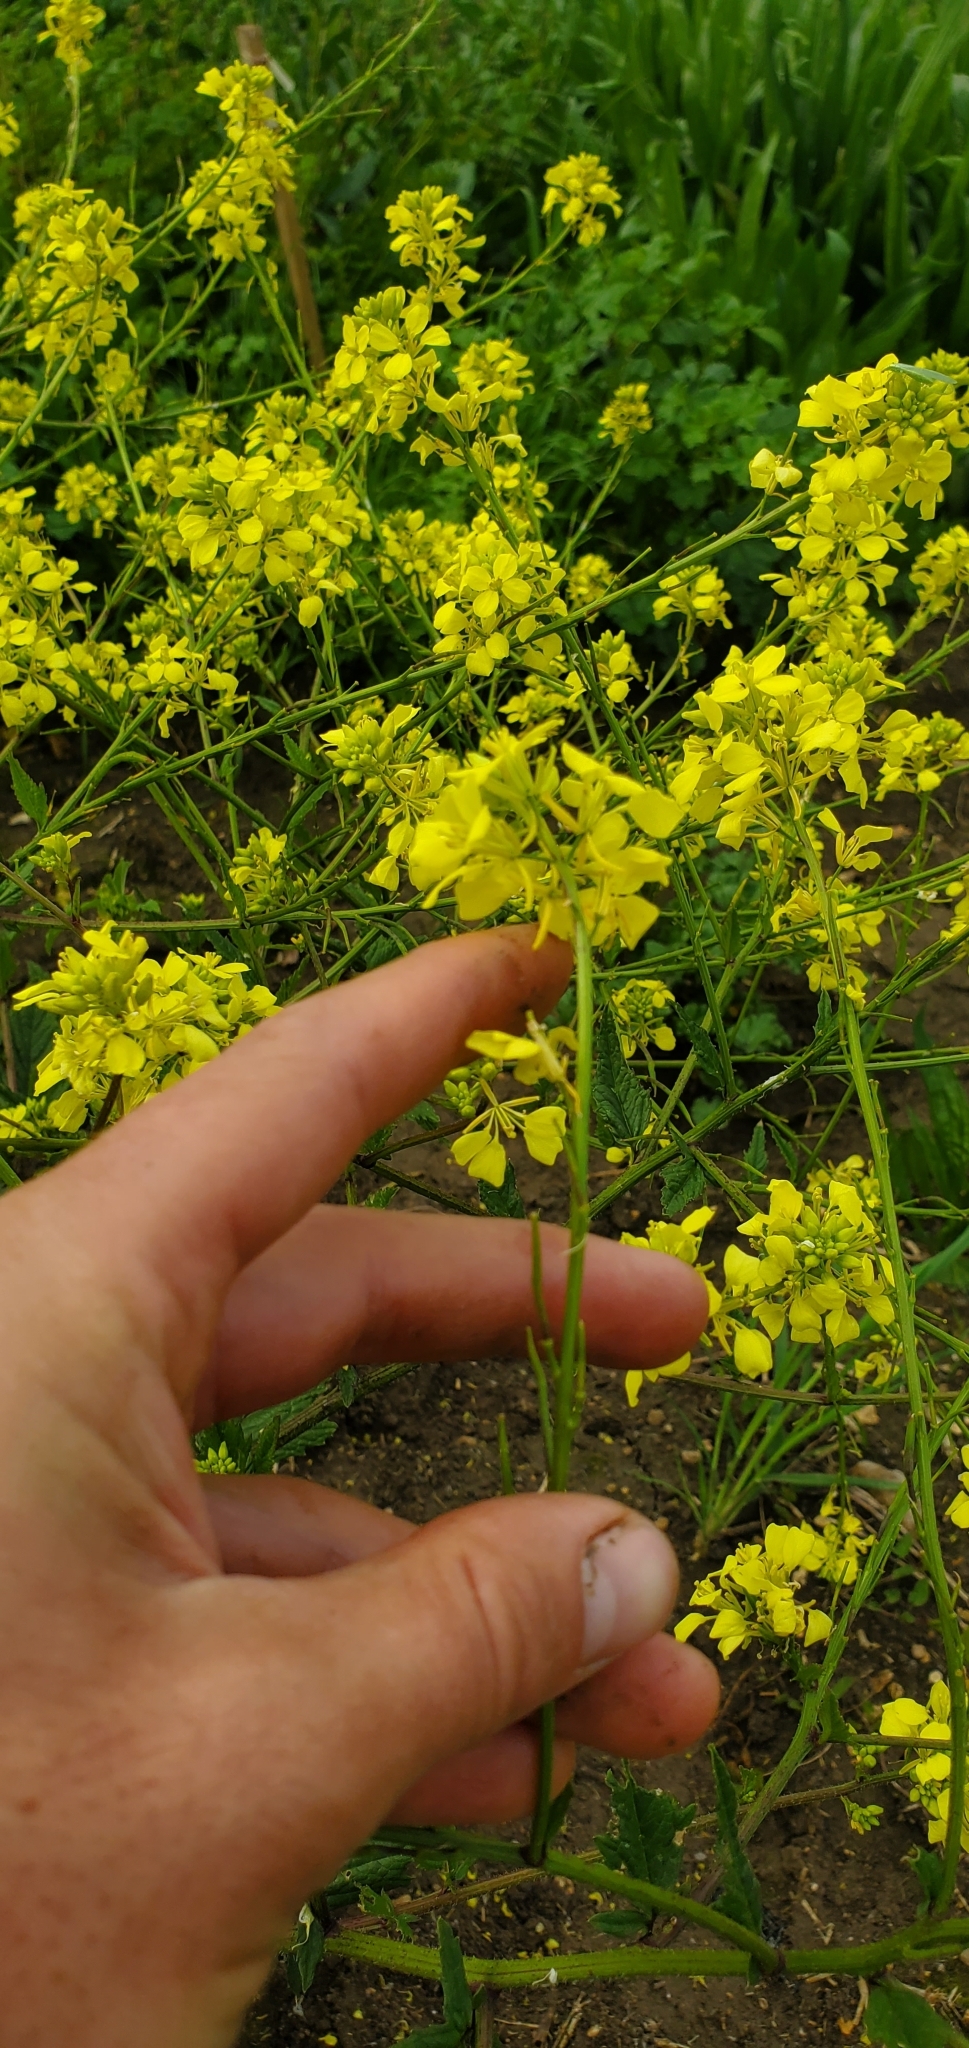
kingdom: Plantae
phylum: Tracheophyta
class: Magnoliopsida
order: Brassicales
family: Brassicaceae
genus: Sinapis
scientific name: Sinapis alba
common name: White mustard
